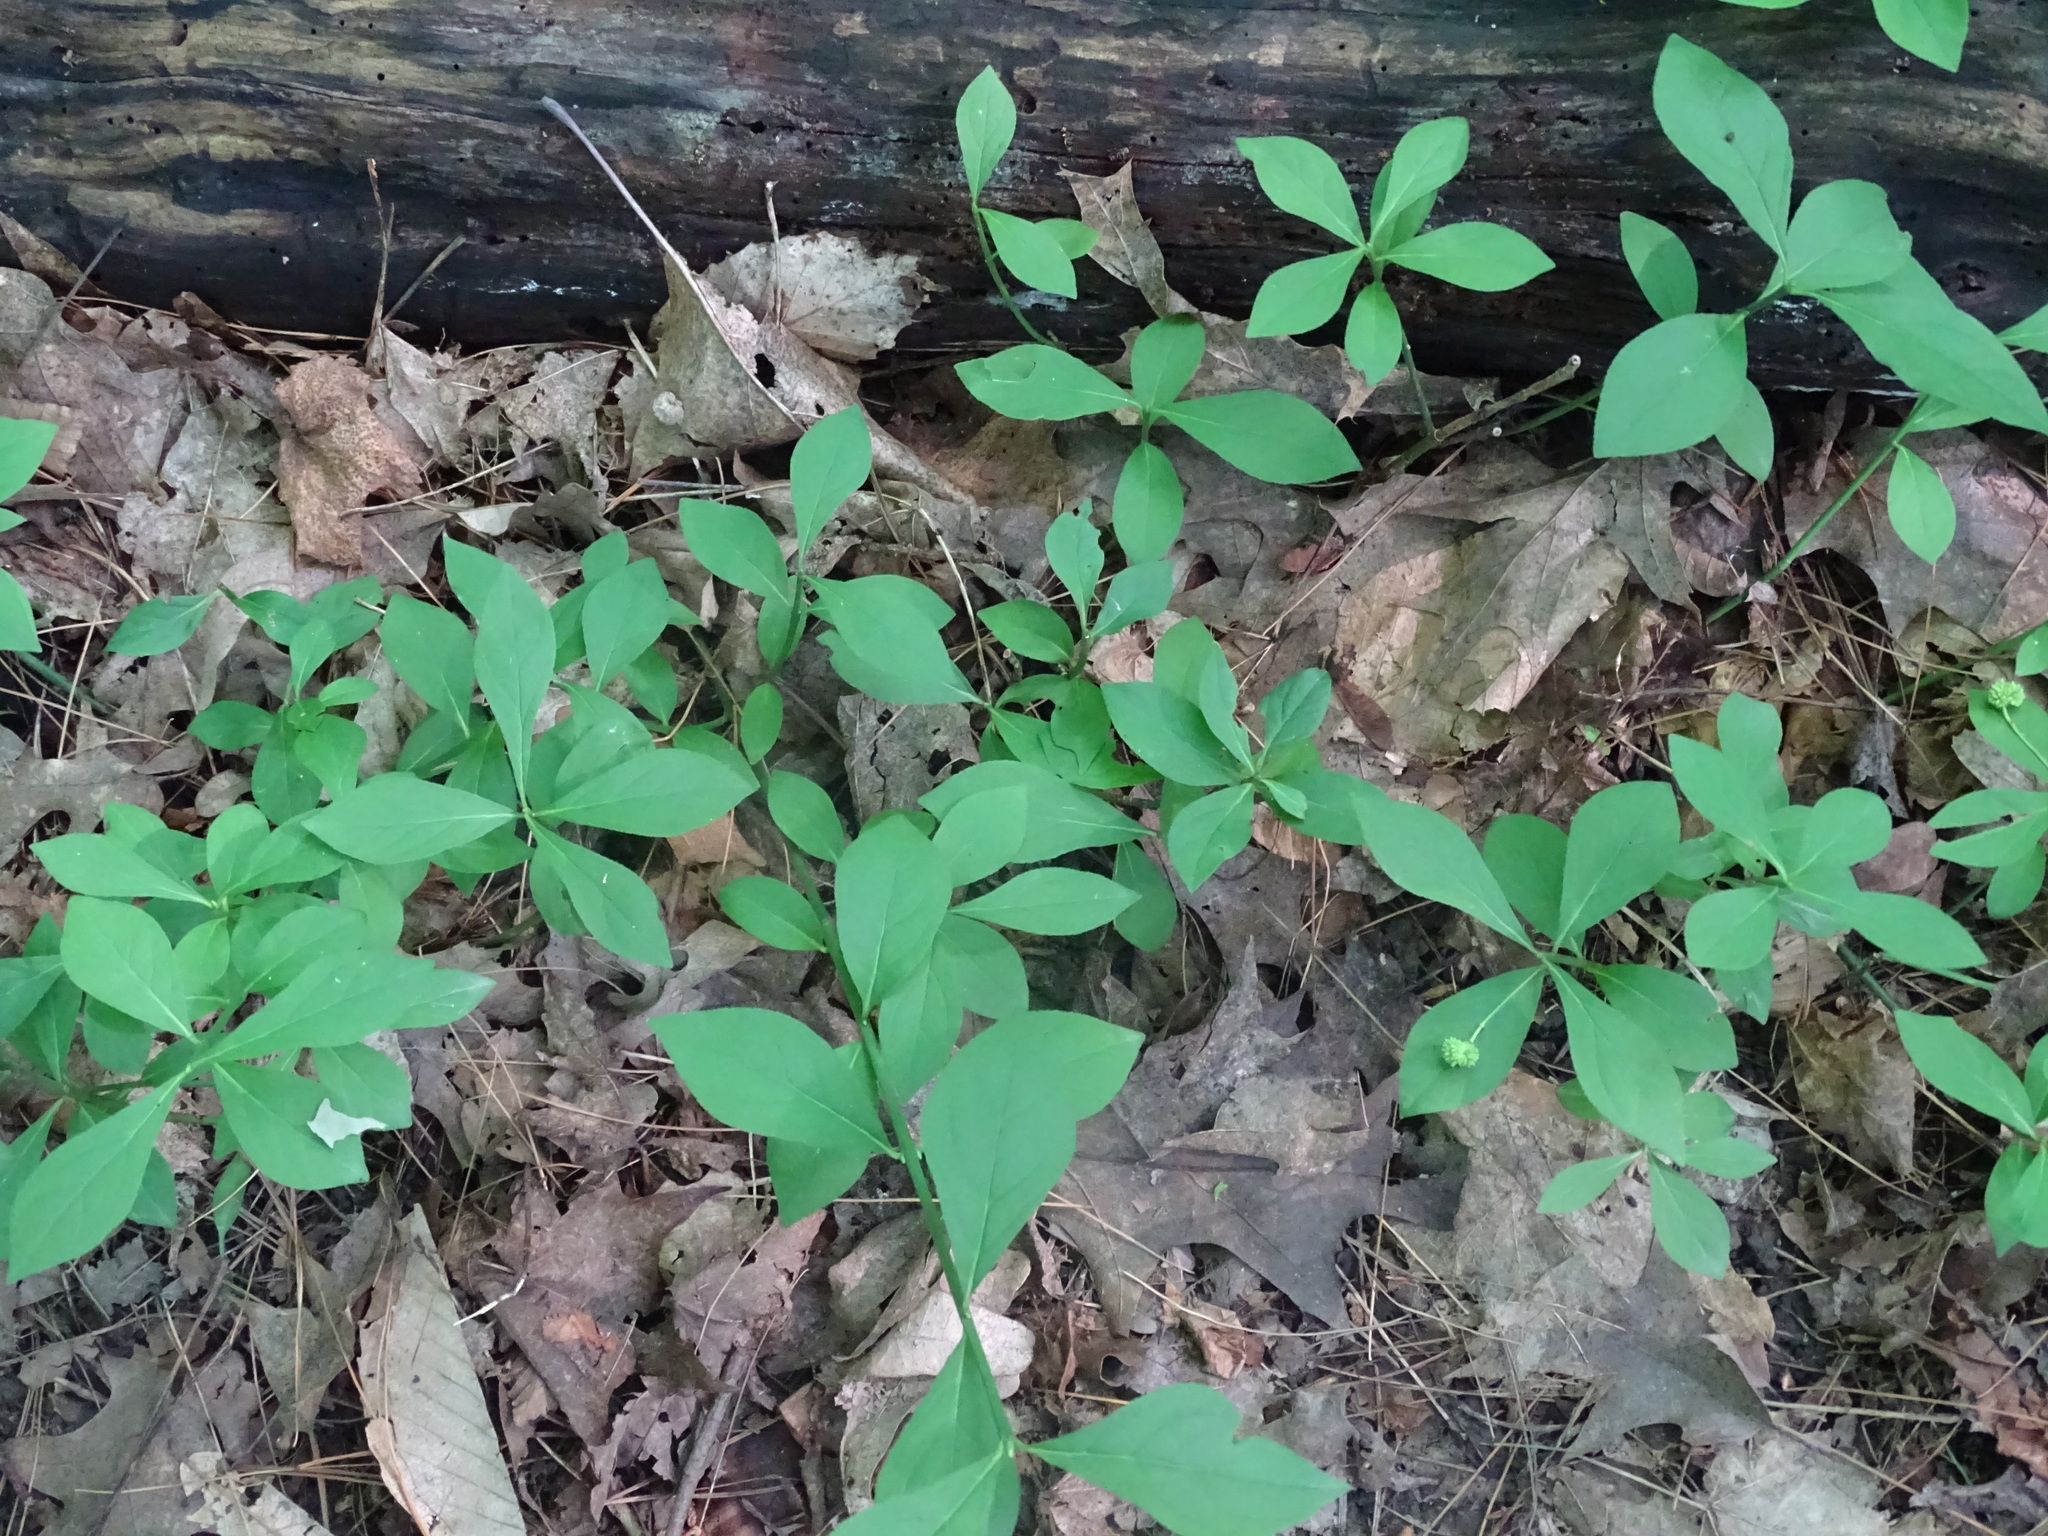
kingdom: Plantae
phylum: Tracheophyta
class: Magnoliopsida
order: Celastrales
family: Celastraceae
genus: Euonymus
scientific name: Euonymus obovatus
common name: Running strawberry-bush
